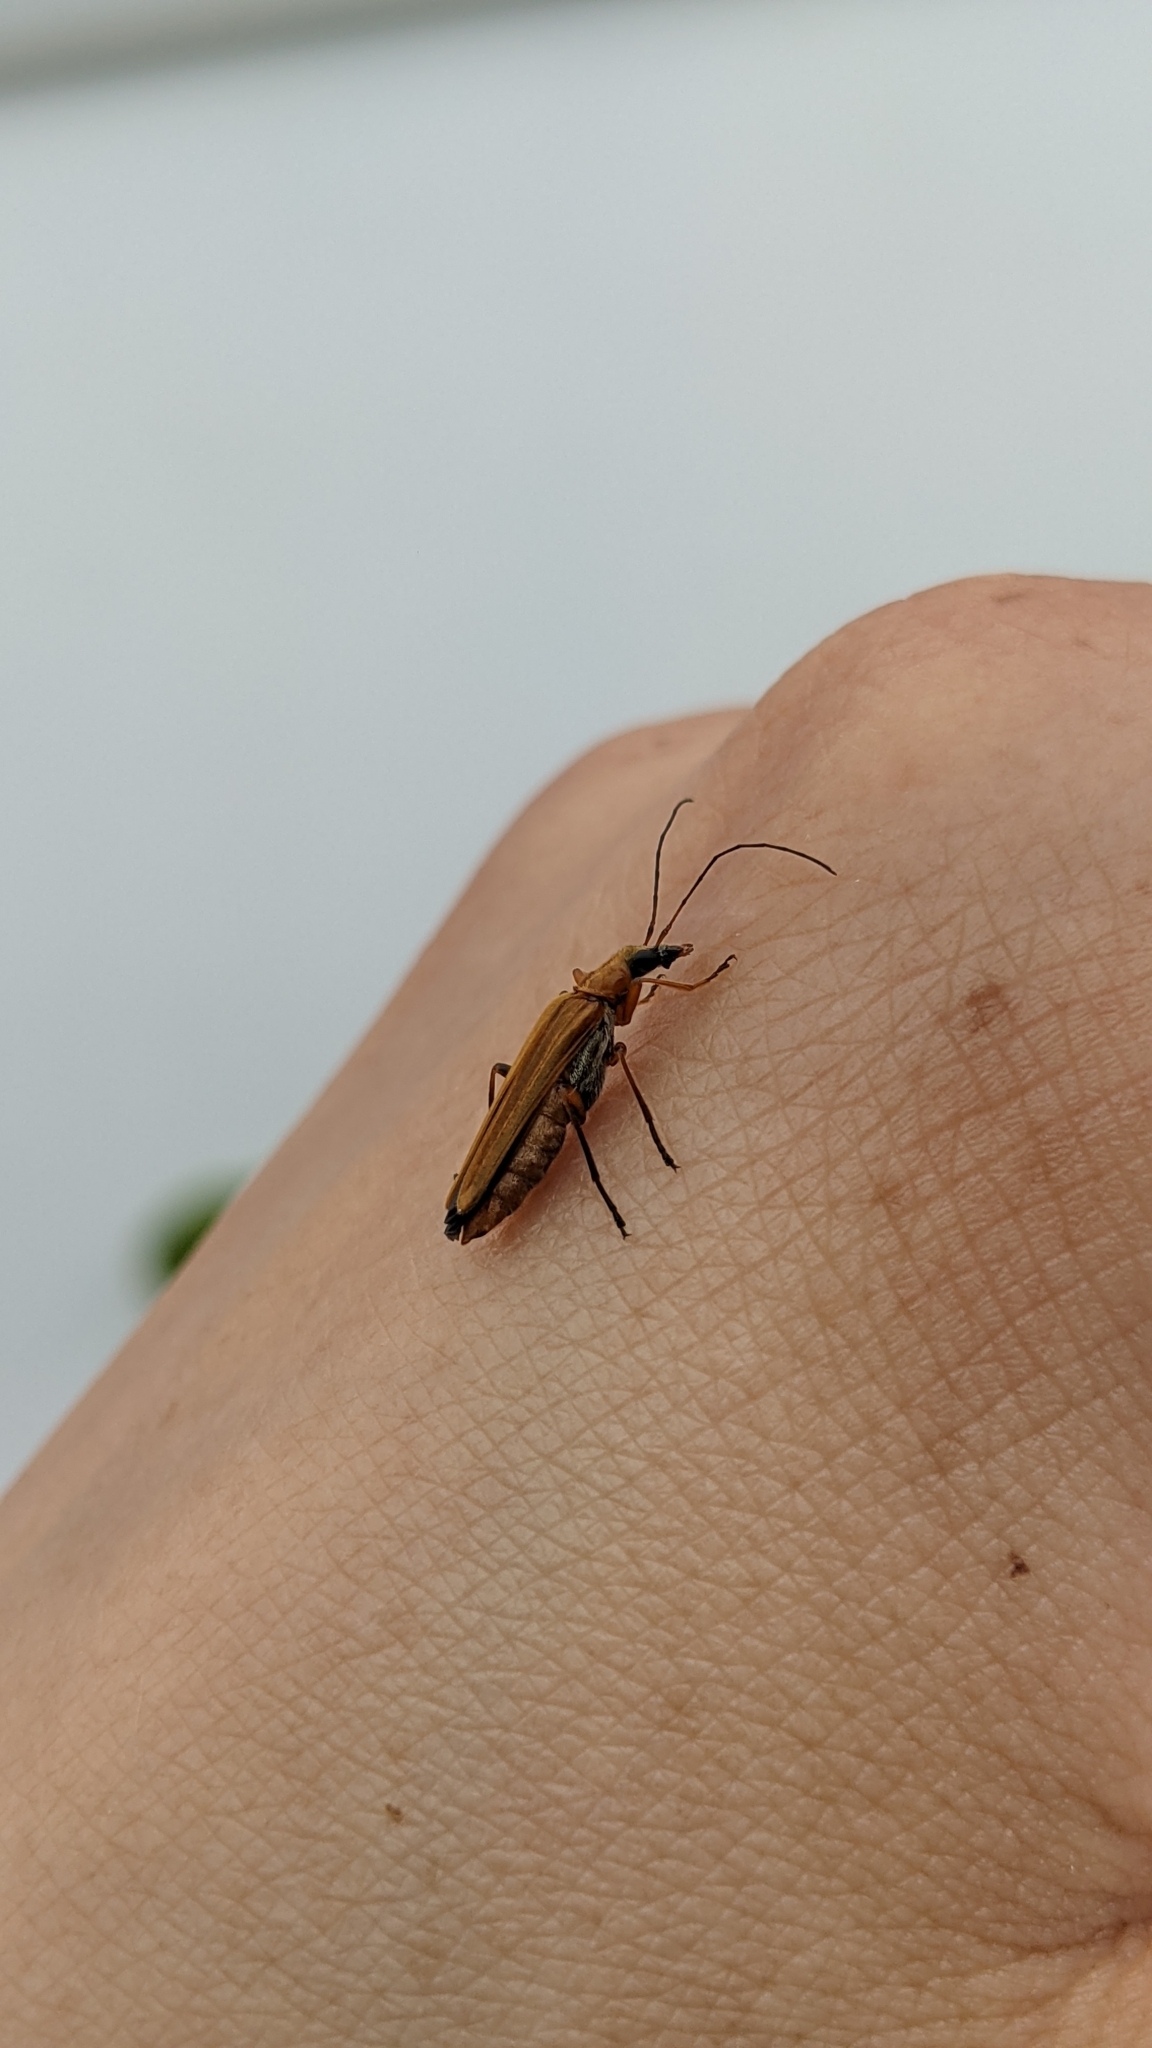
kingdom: Animalia
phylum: Arthropoda
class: Insecta
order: Coleoptera
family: Oedemeridae
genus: Oedemera
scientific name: Oedemera podagrariae
